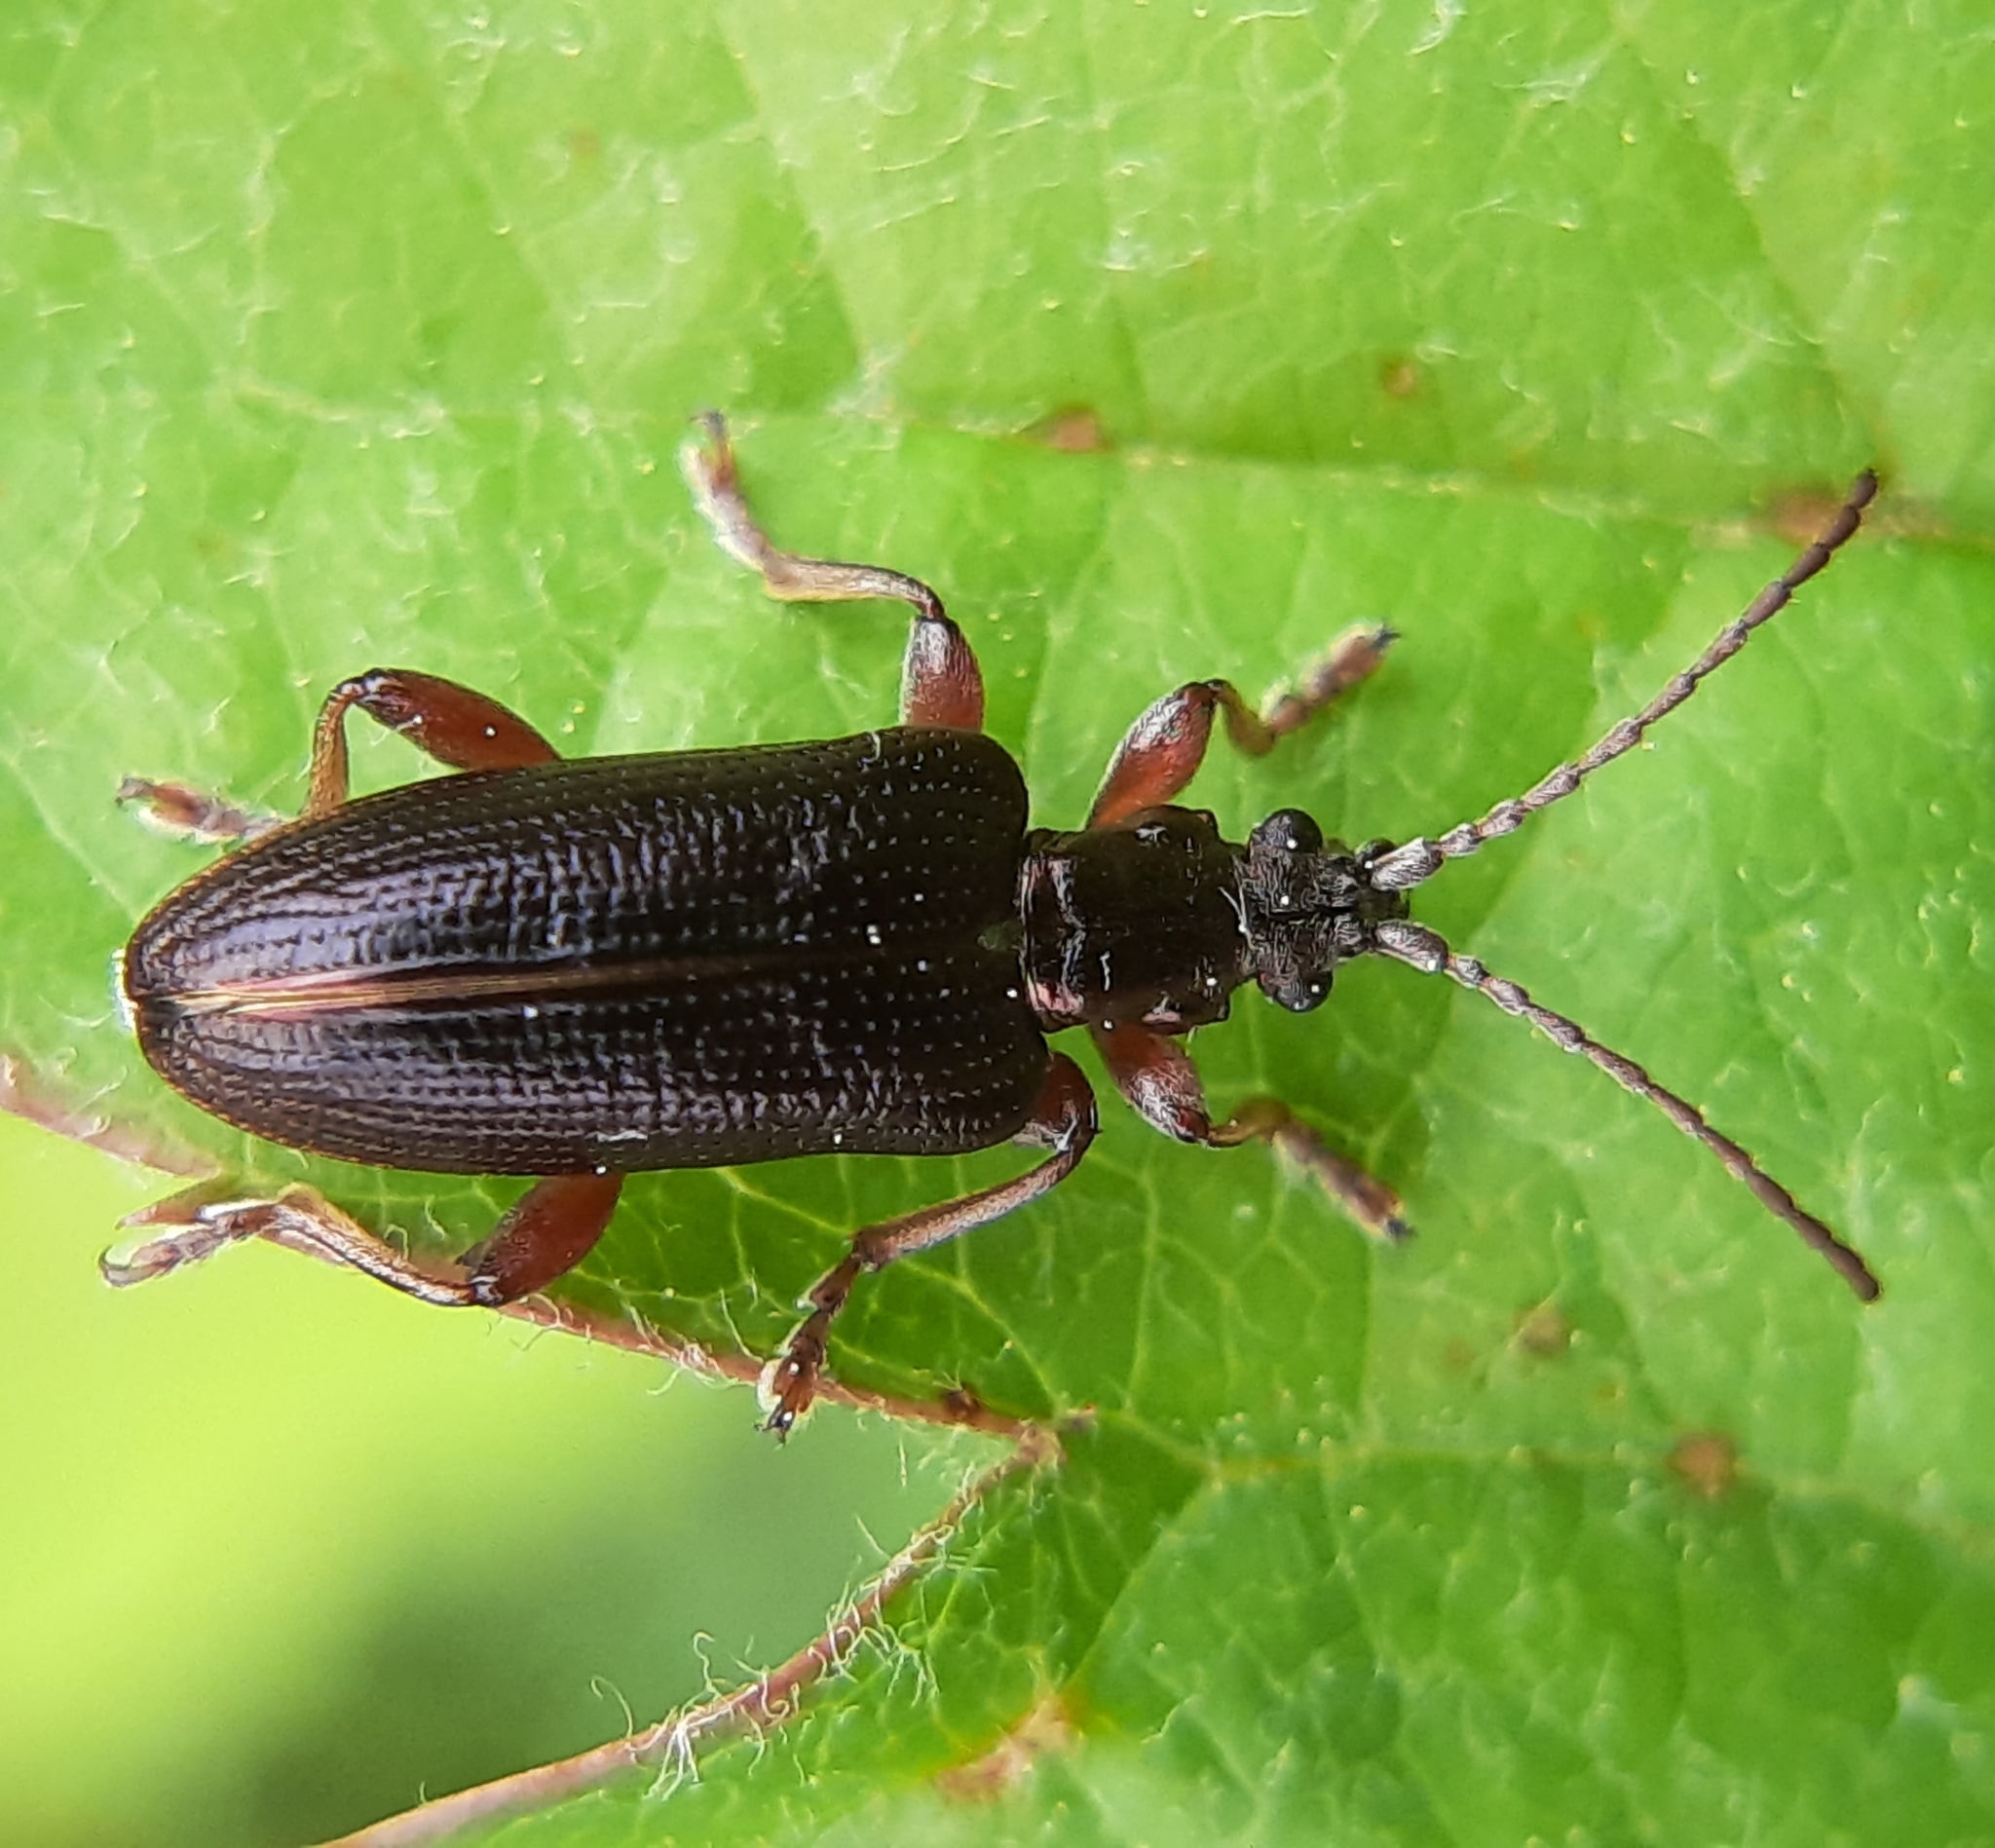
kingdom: Animalia
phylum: Arthropoda
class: Insecta
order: Coleoptera
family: Chrysomelidae
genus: Plateumaris
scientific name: Plateumaris shoemakeri
